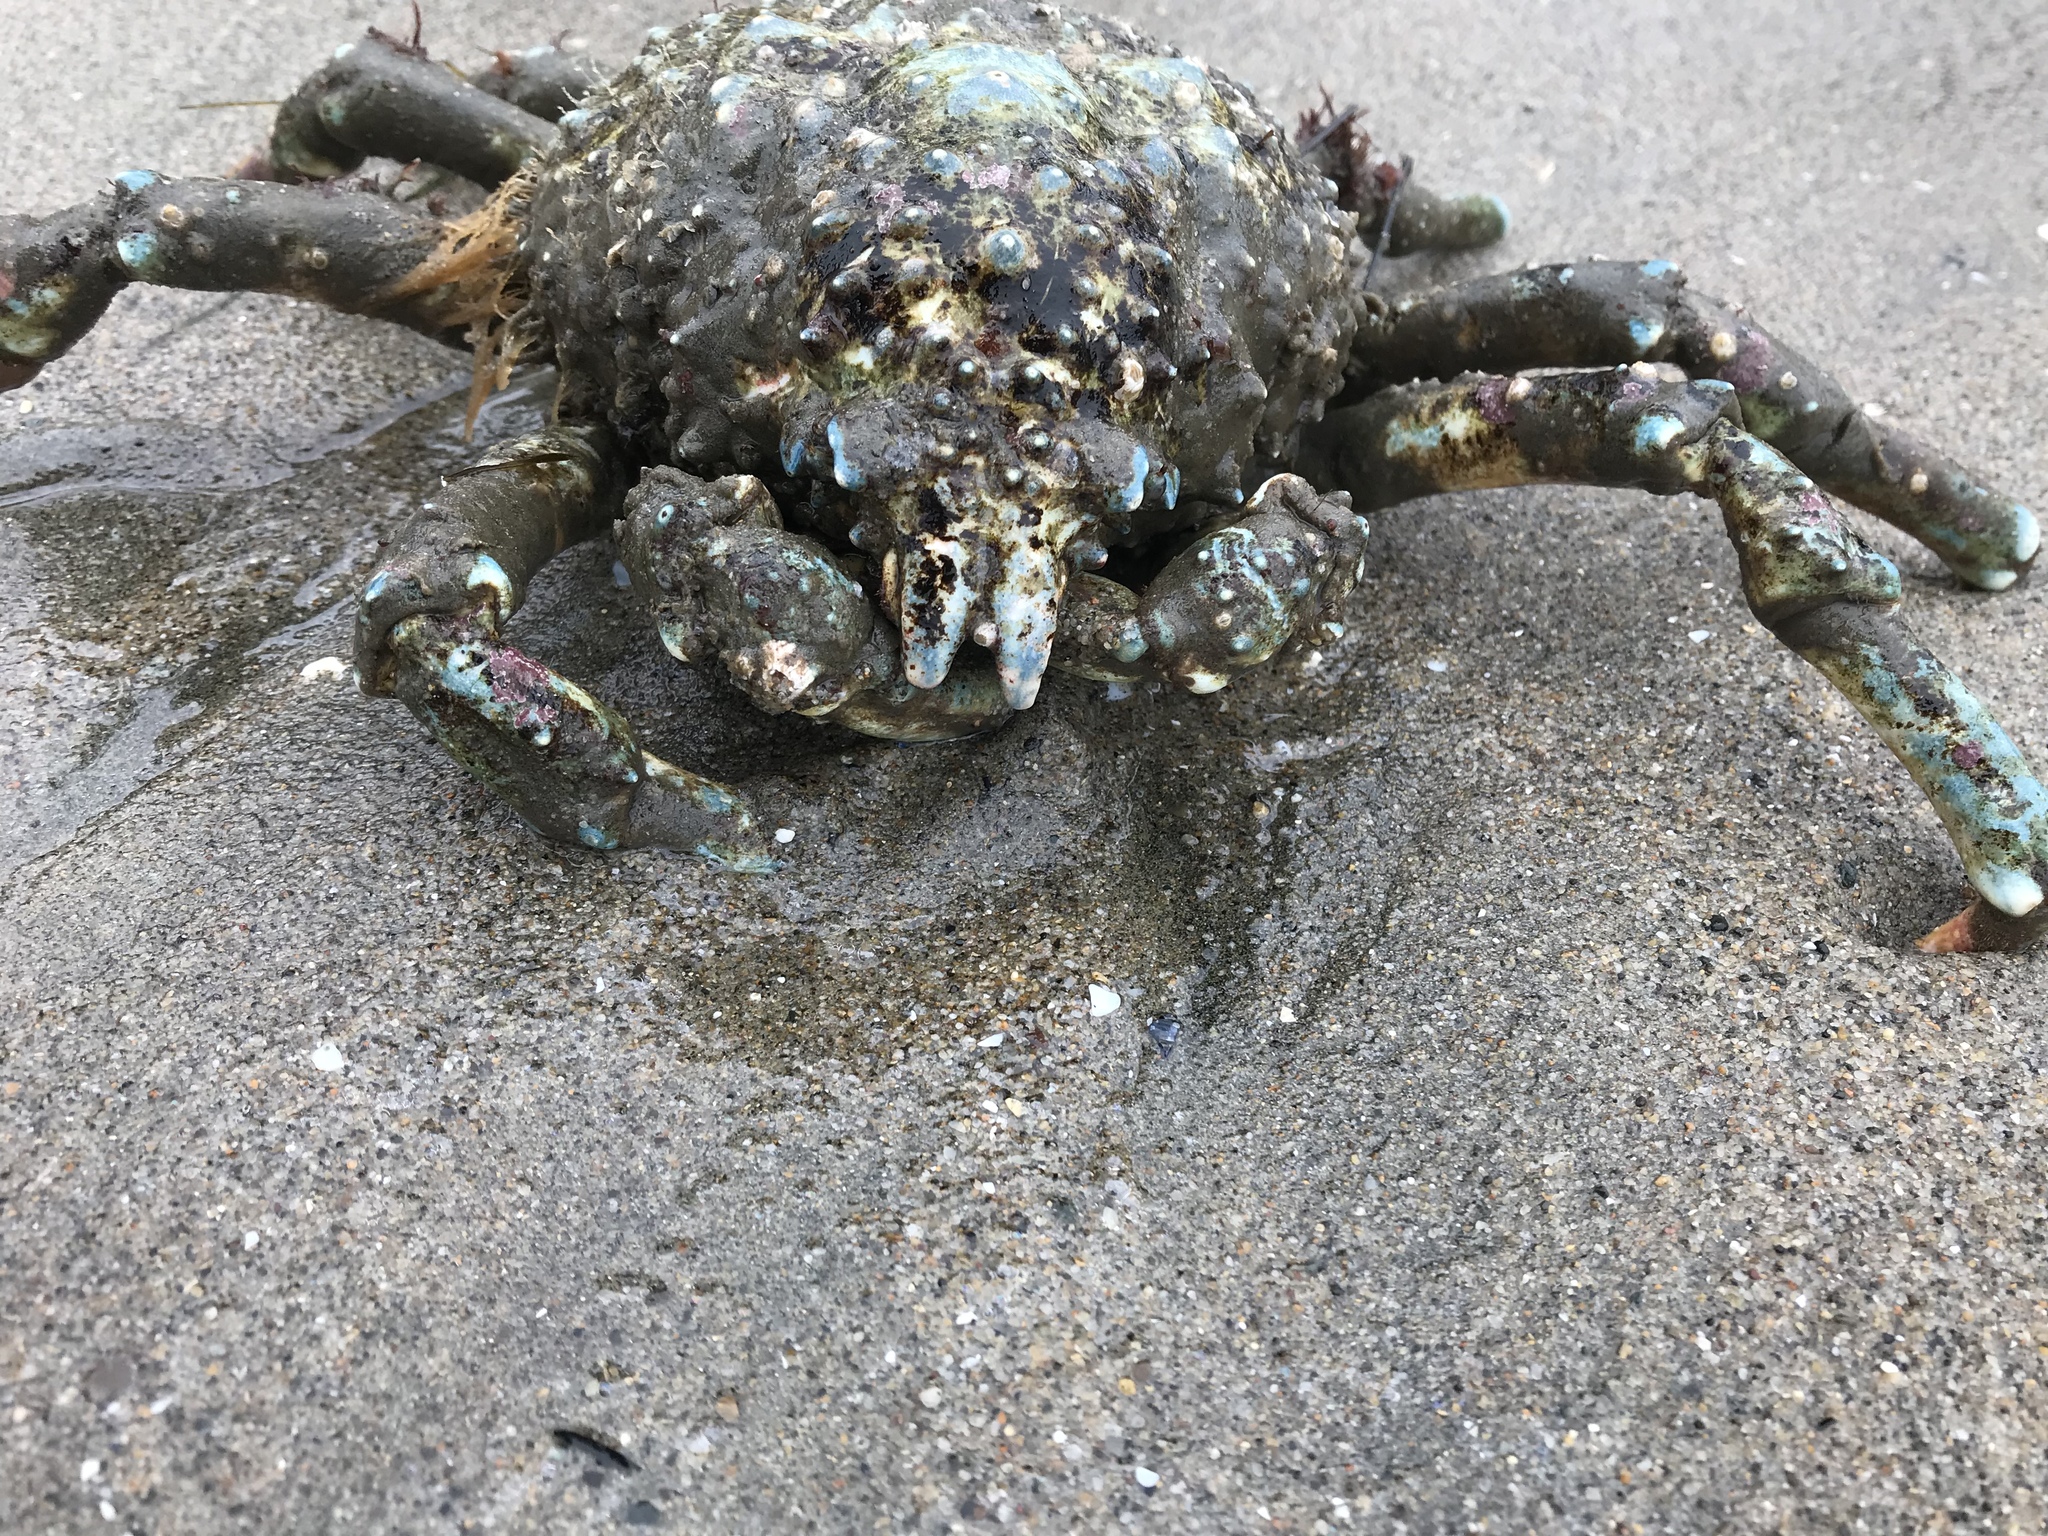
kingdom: Animalia
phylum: Arthropoda
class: Malacostraca
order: Decapoda
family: Epialtidae
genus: Loxorhynchus
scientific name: Loxorhynchus grandis
